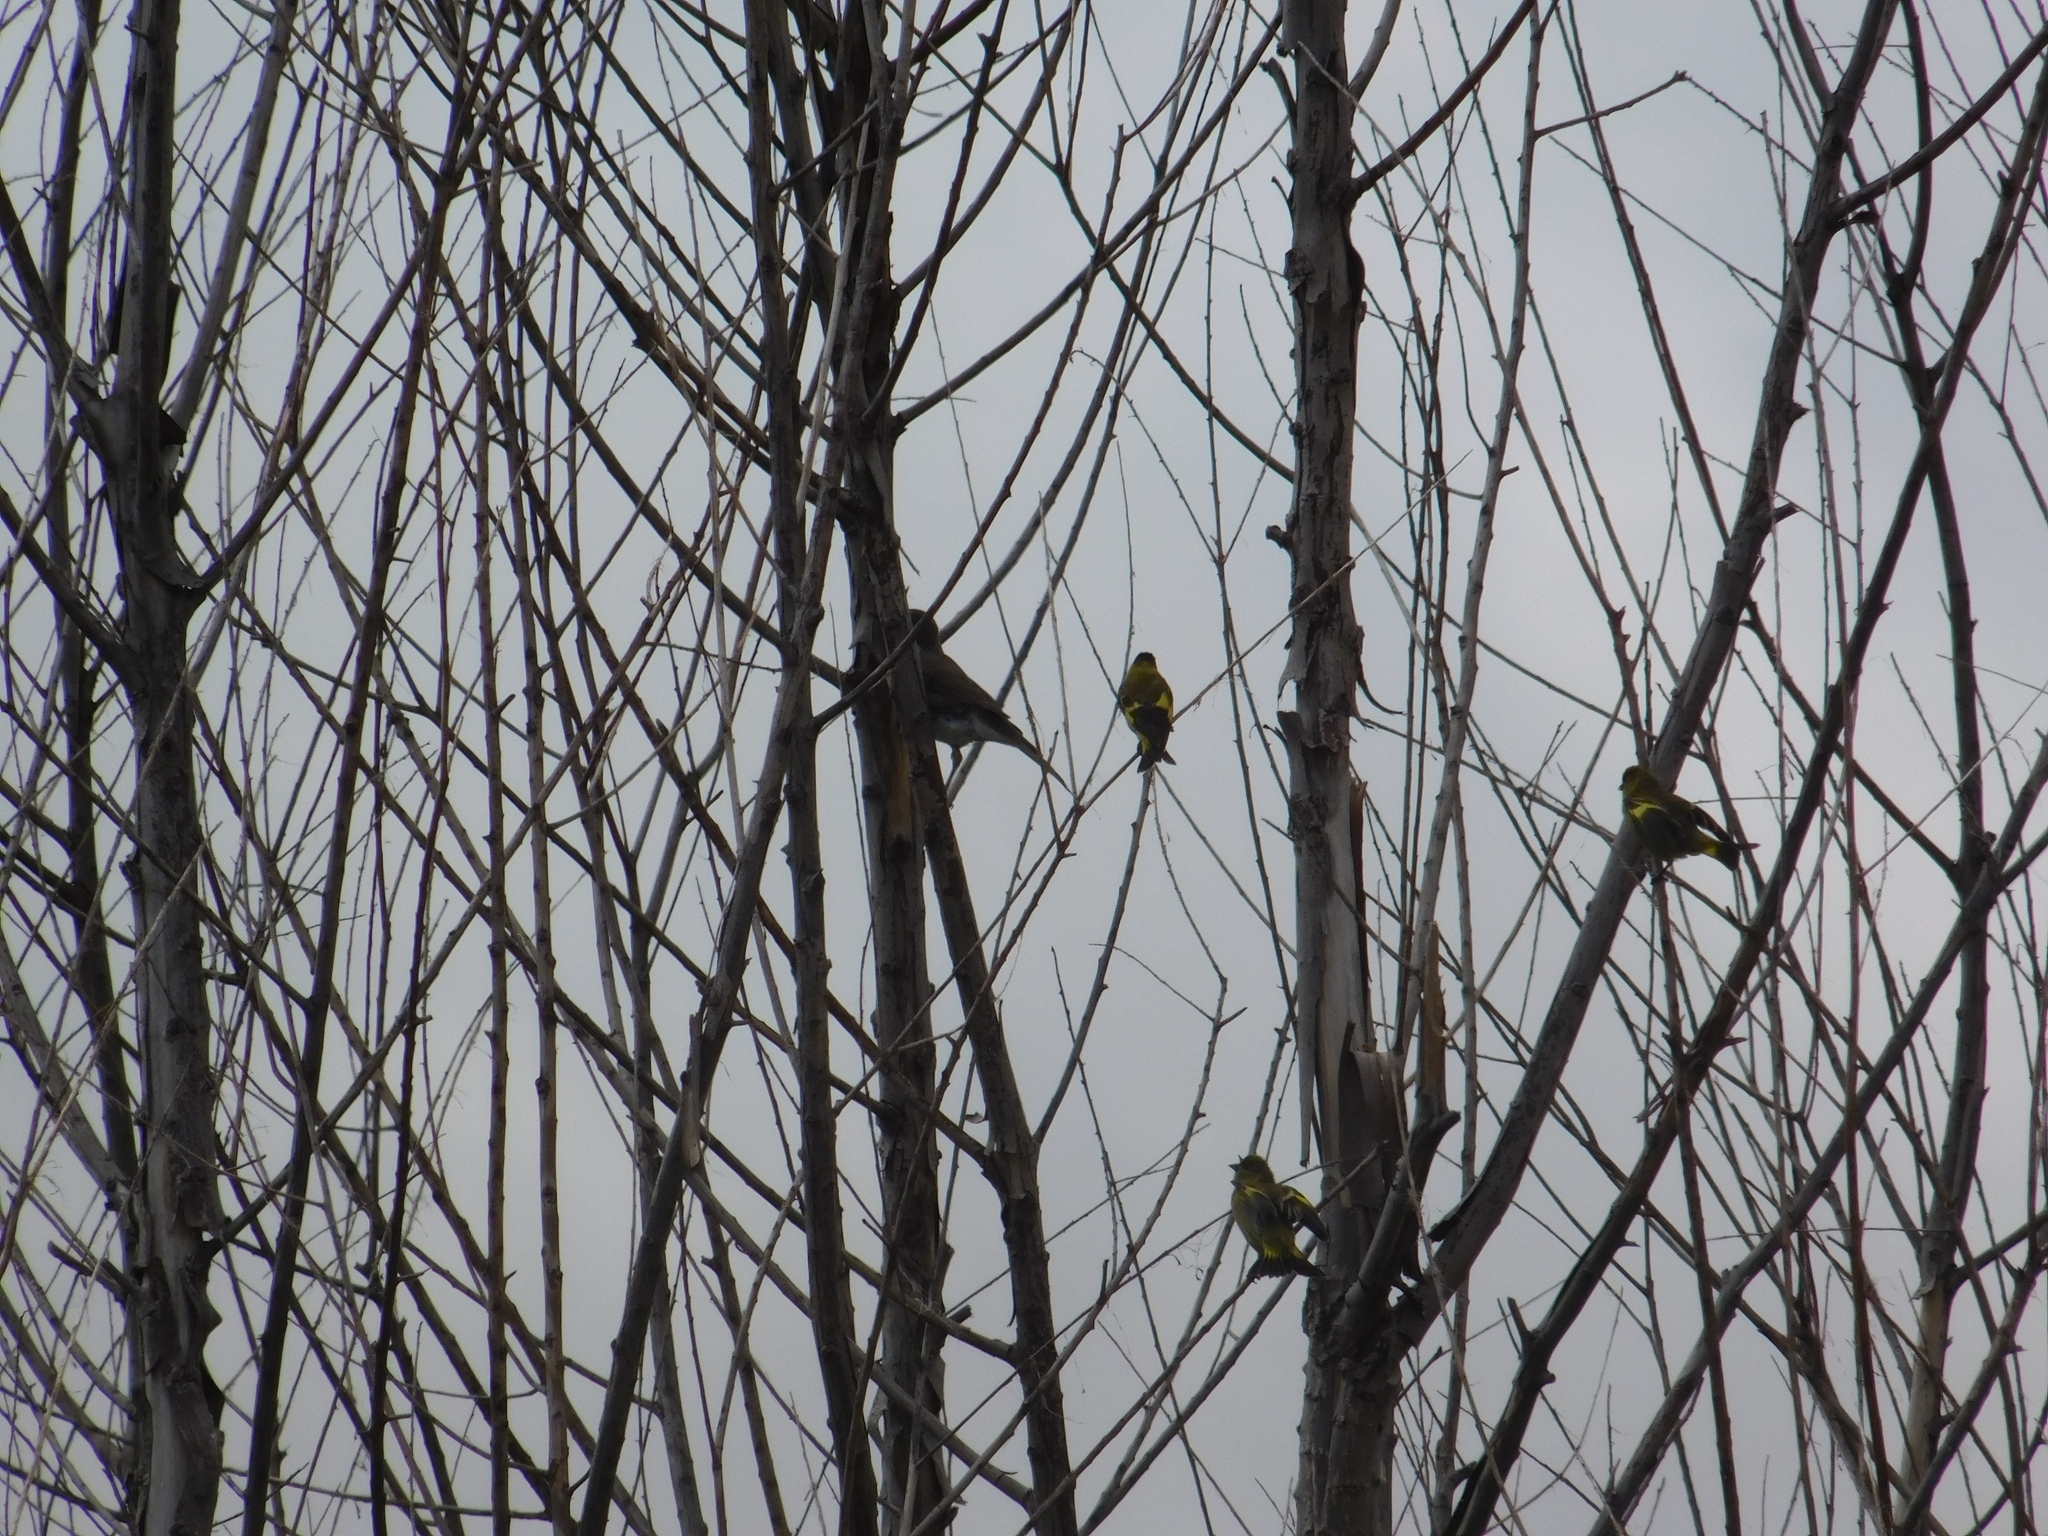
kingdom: Animalia
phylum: Chordata
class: Aves
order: Passeriformes
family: Fringillidae
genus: Spinus
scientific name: Spinus magellanicus
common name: Hooded siskin
